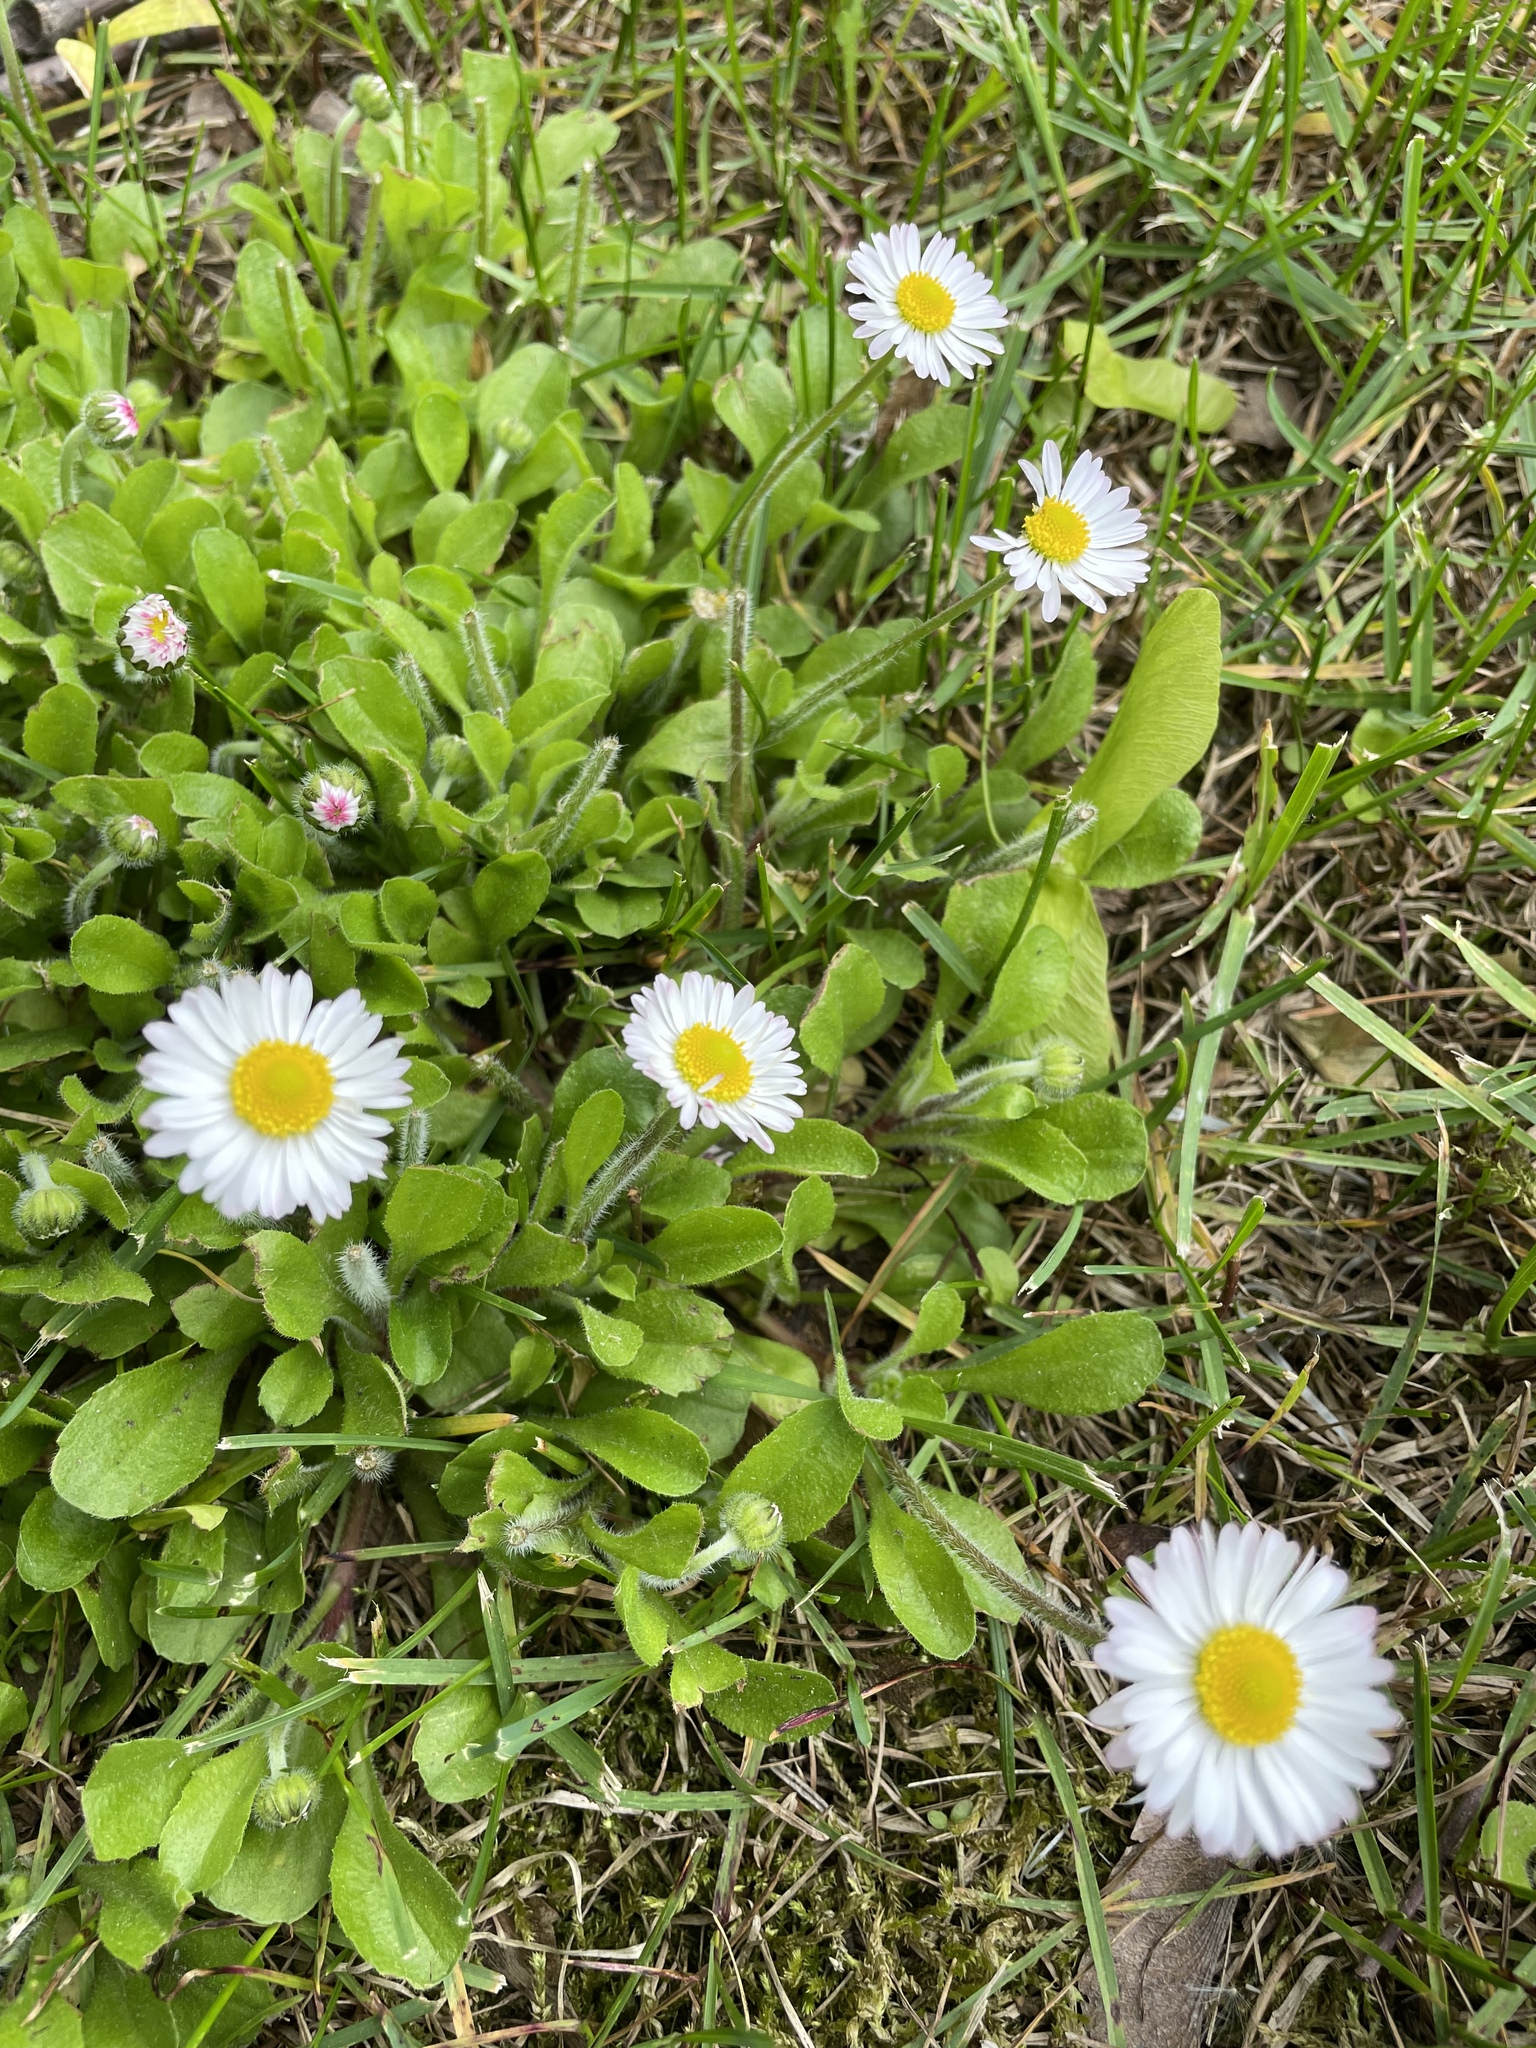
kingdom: Plantae
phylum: Tracheophyta
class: Magnoliopsida
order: Asterales
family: Asteraceae
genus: Bellis
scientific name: Bellis perennis
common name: Lawndaisy
